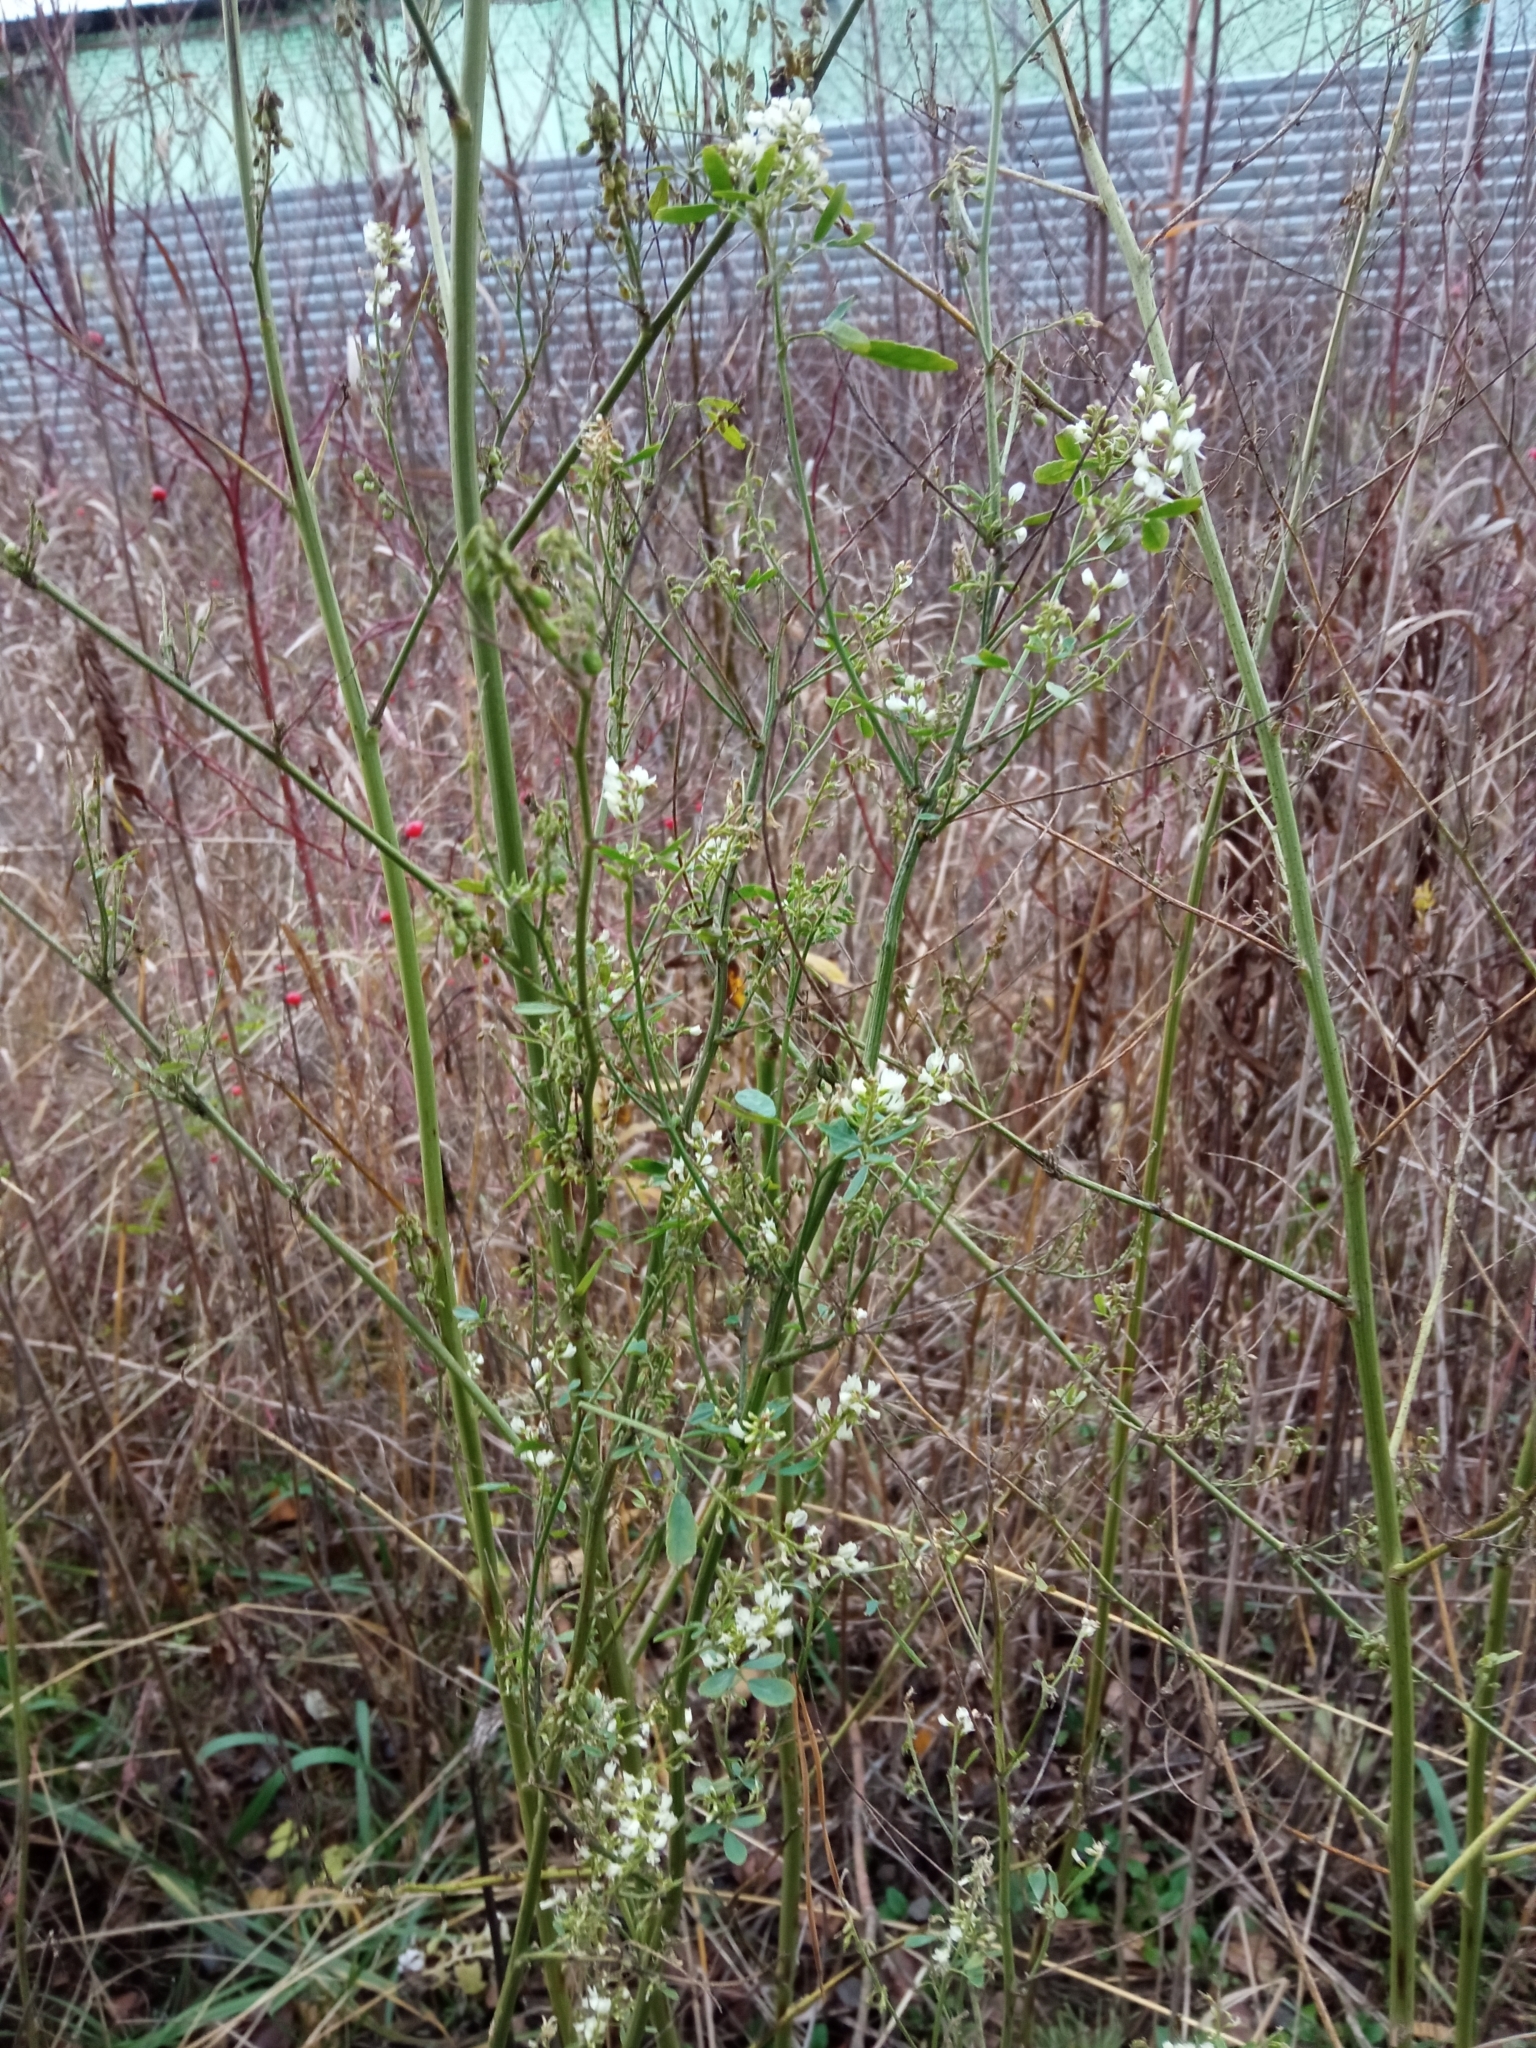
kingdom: Plantae
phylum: Tracheophyta
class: Magnoliopsida
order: Fabales
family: Fabaceae
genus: Melilotus
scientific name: Melilotus albus
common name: White melilot
